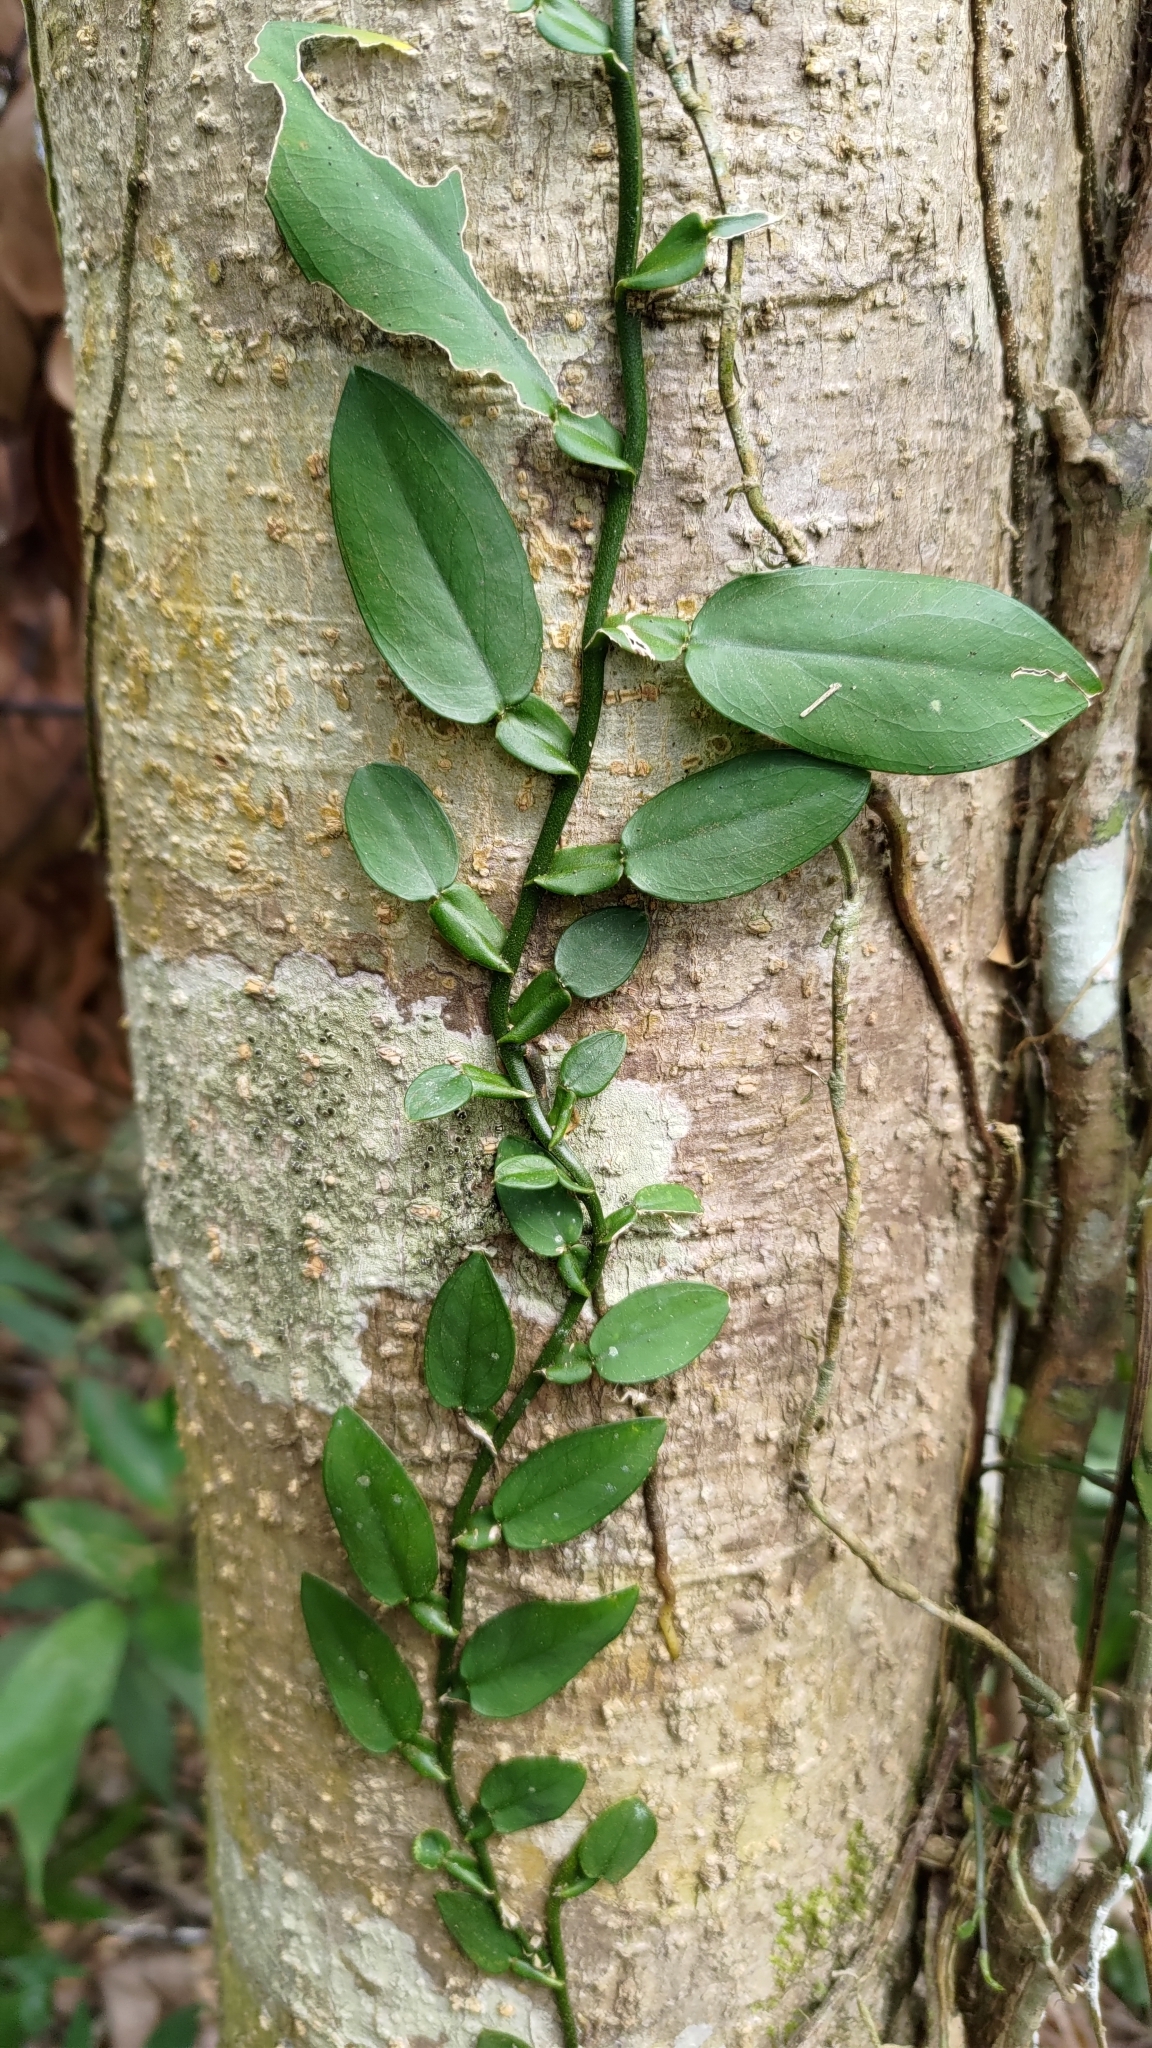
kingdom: Plantae
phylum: Tracheophyta
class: Liliopsida
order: Alismatales
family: Araceae
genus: Pothos
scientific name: Pothos chinensis
